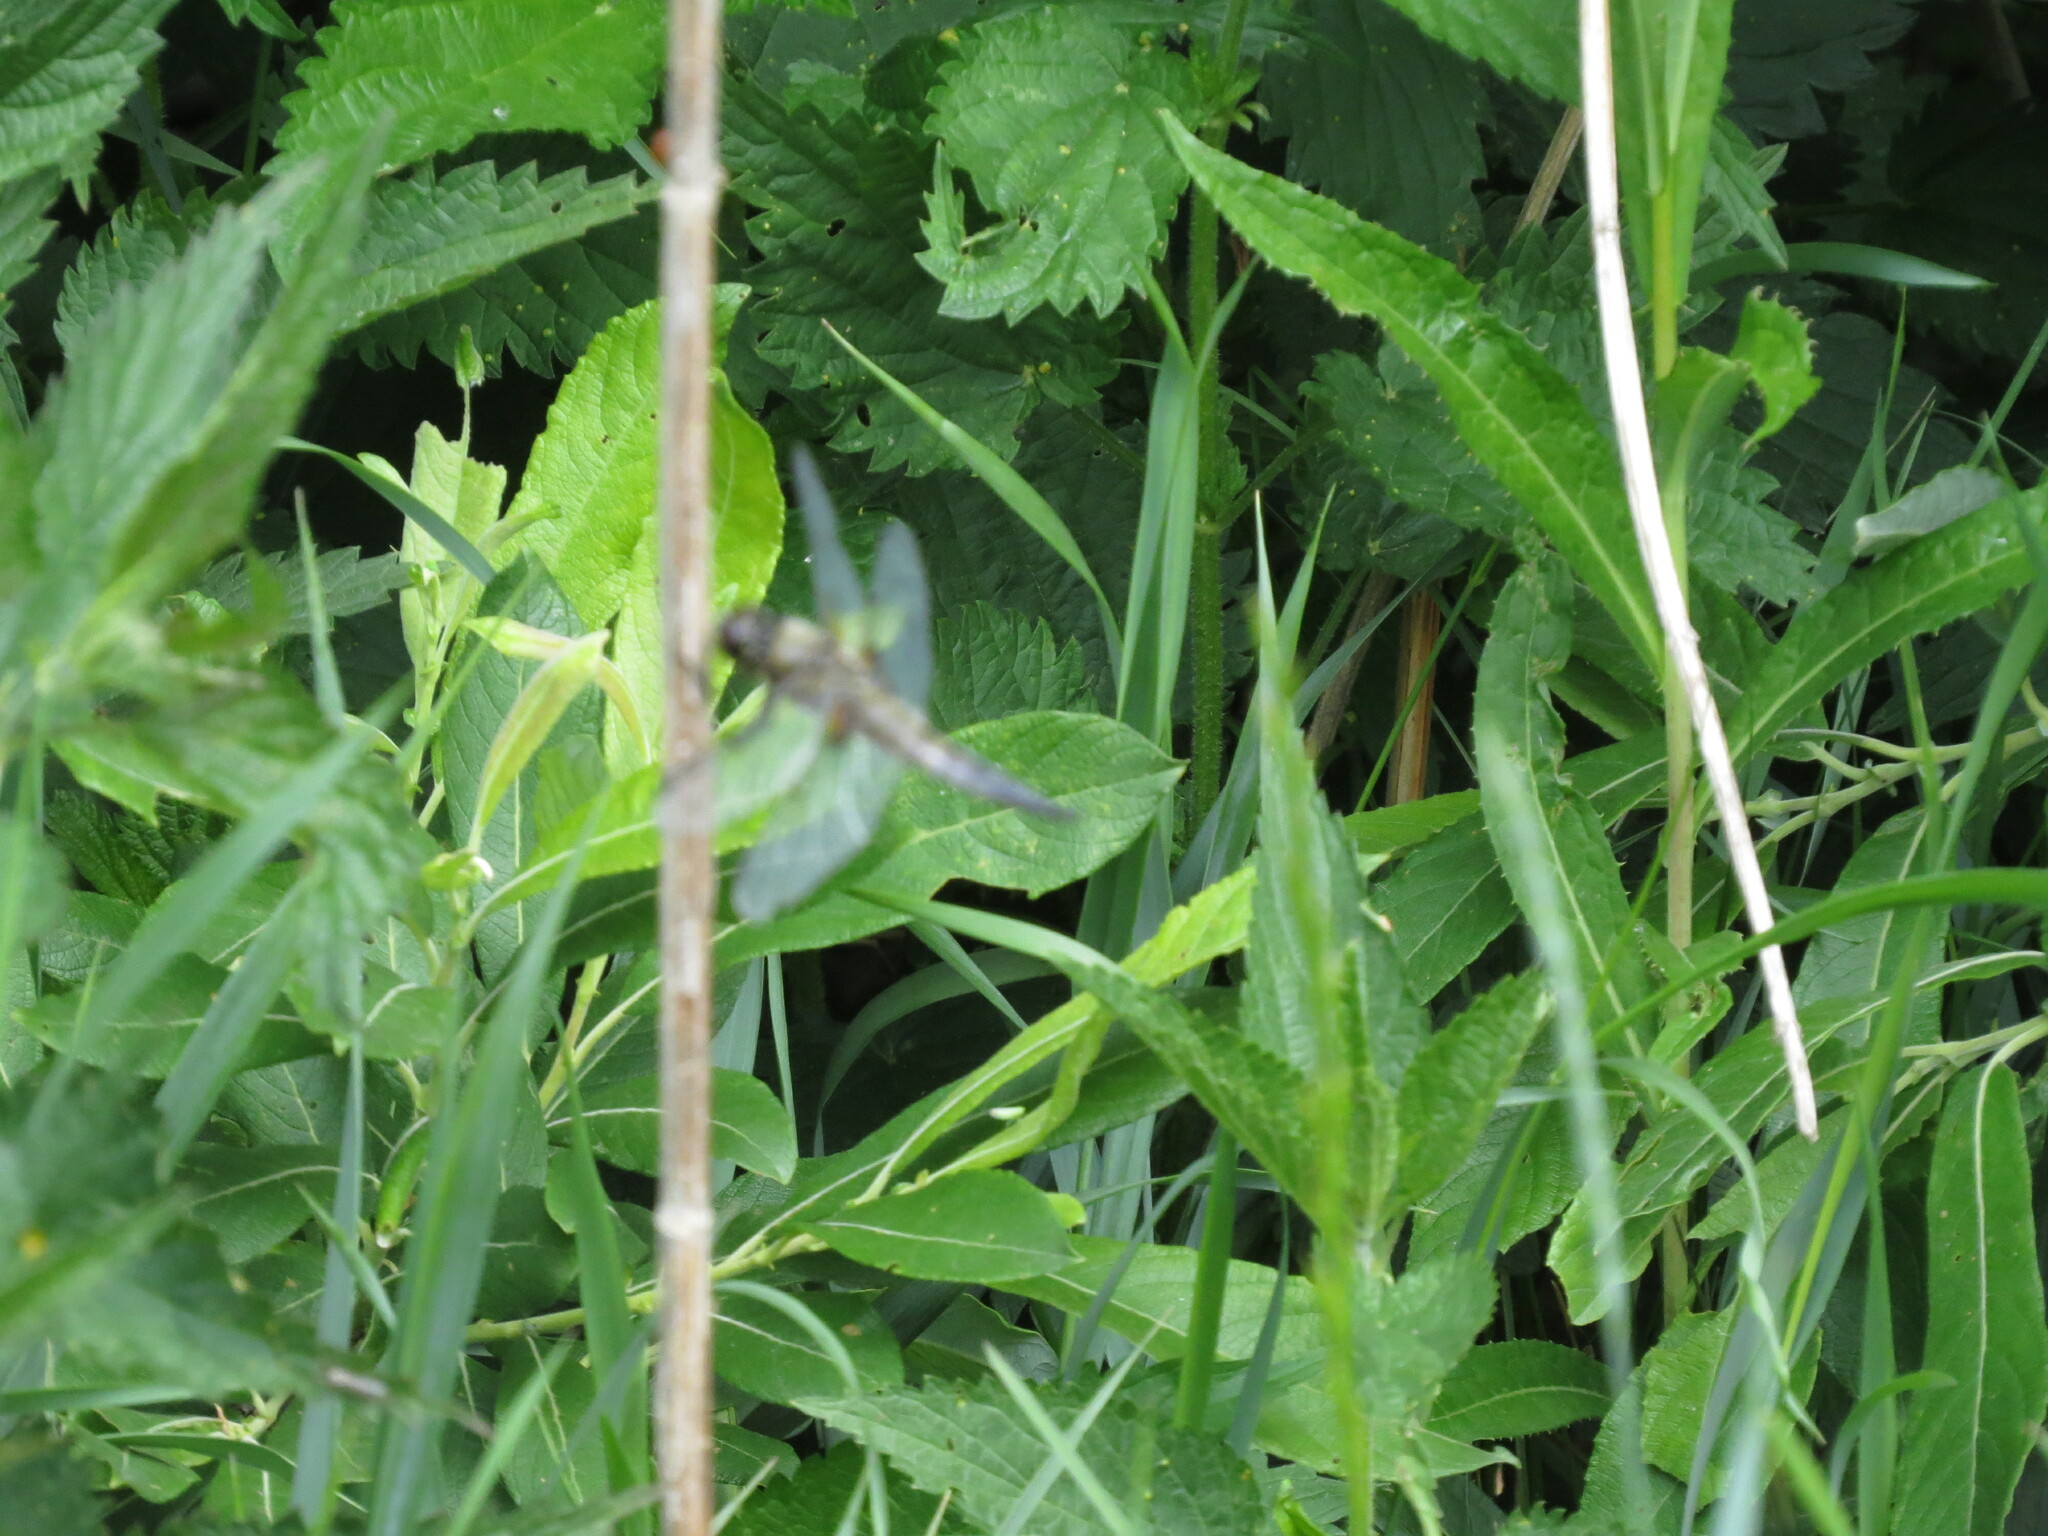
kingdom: Animalia
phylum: Arthropoda
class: Insecta
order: Odonata
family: Libellulidae
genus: Libellula
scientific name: Libellula quadrimaculata
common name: Four-spotted chaser
